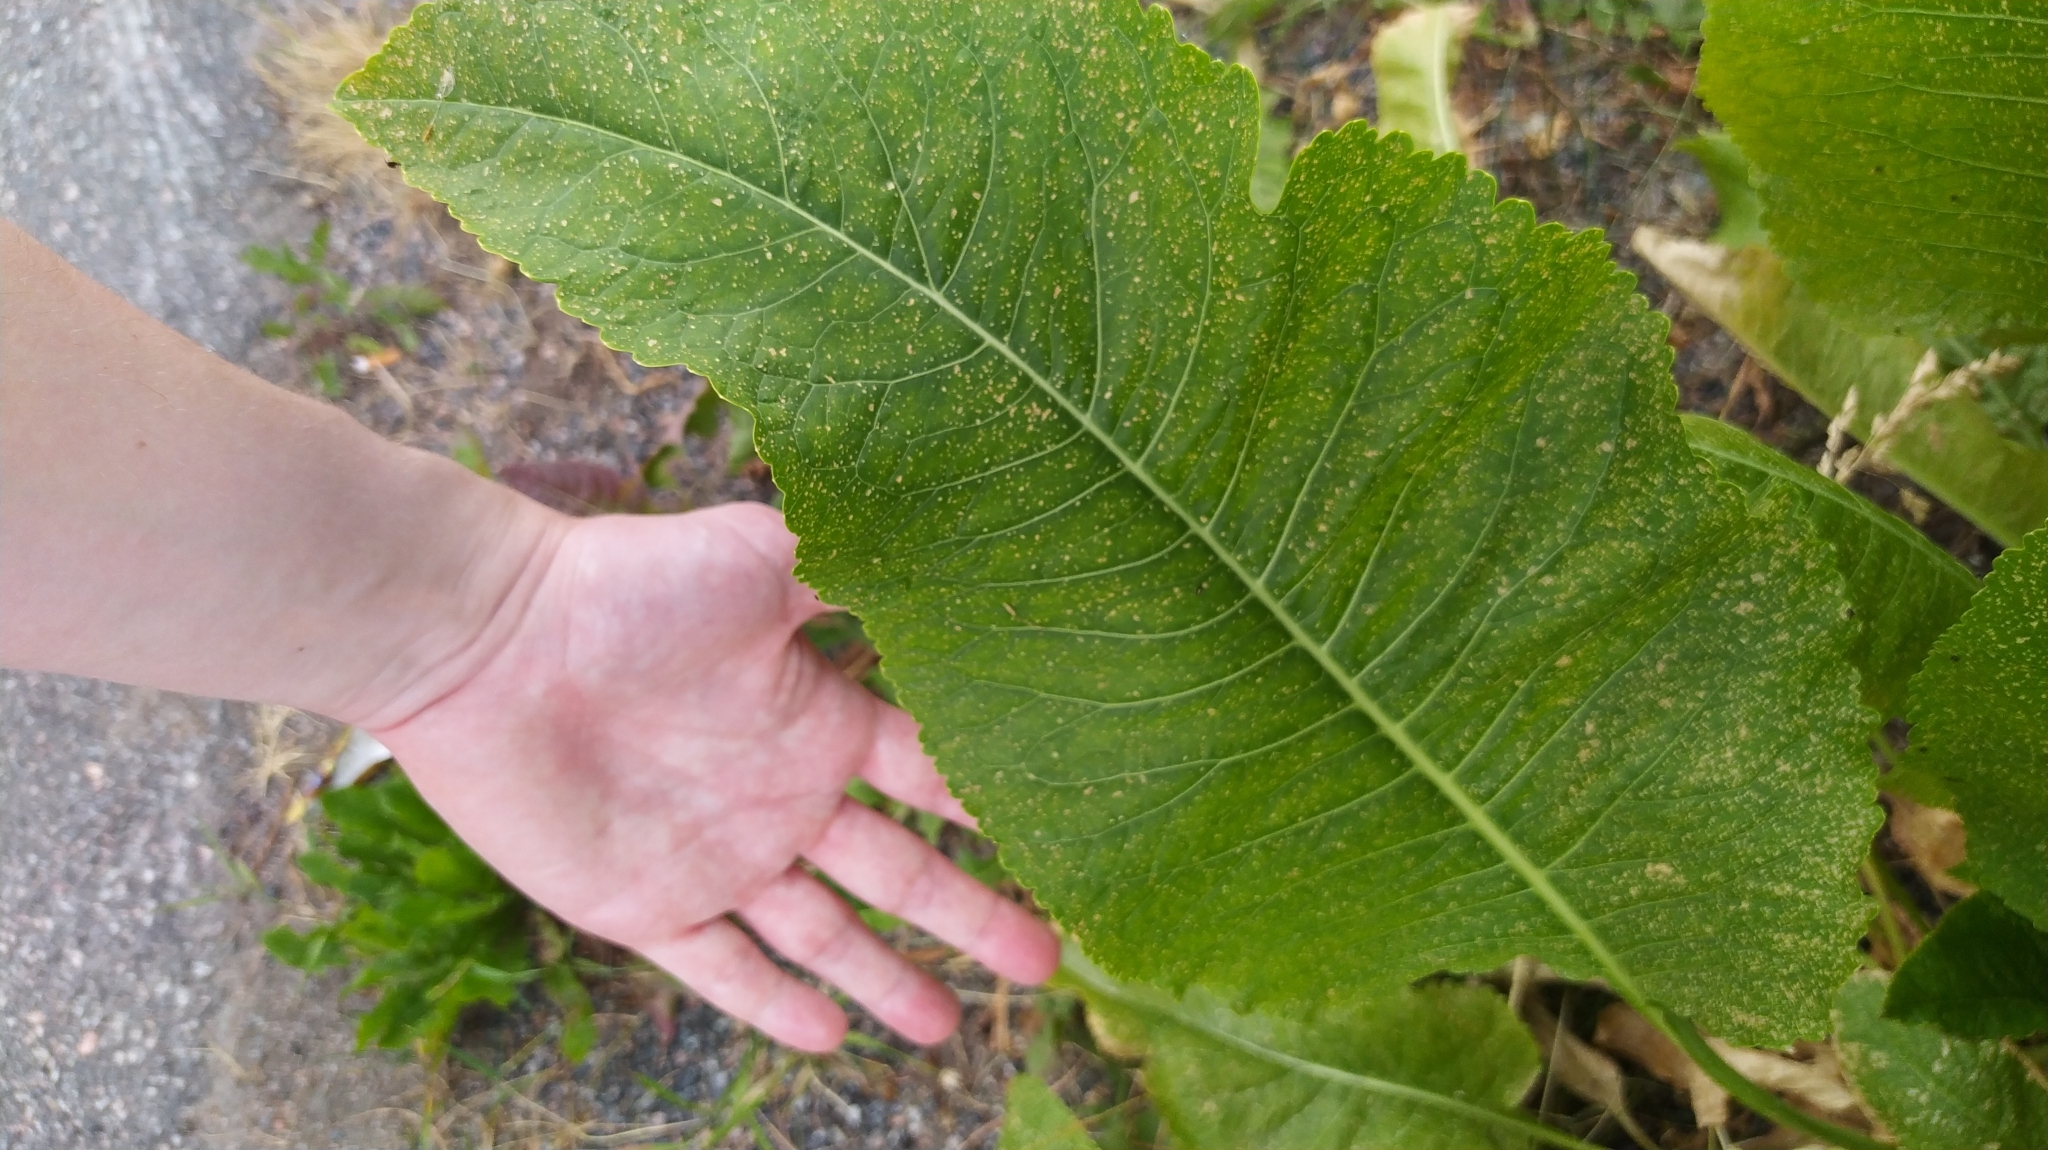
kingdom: Plantae
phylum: Tracheophyta
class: Magnoliopsida
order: Brassicales
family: Brassicaceae
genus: Armoracia
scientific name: Armoracia rusticana
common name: Horseradish
